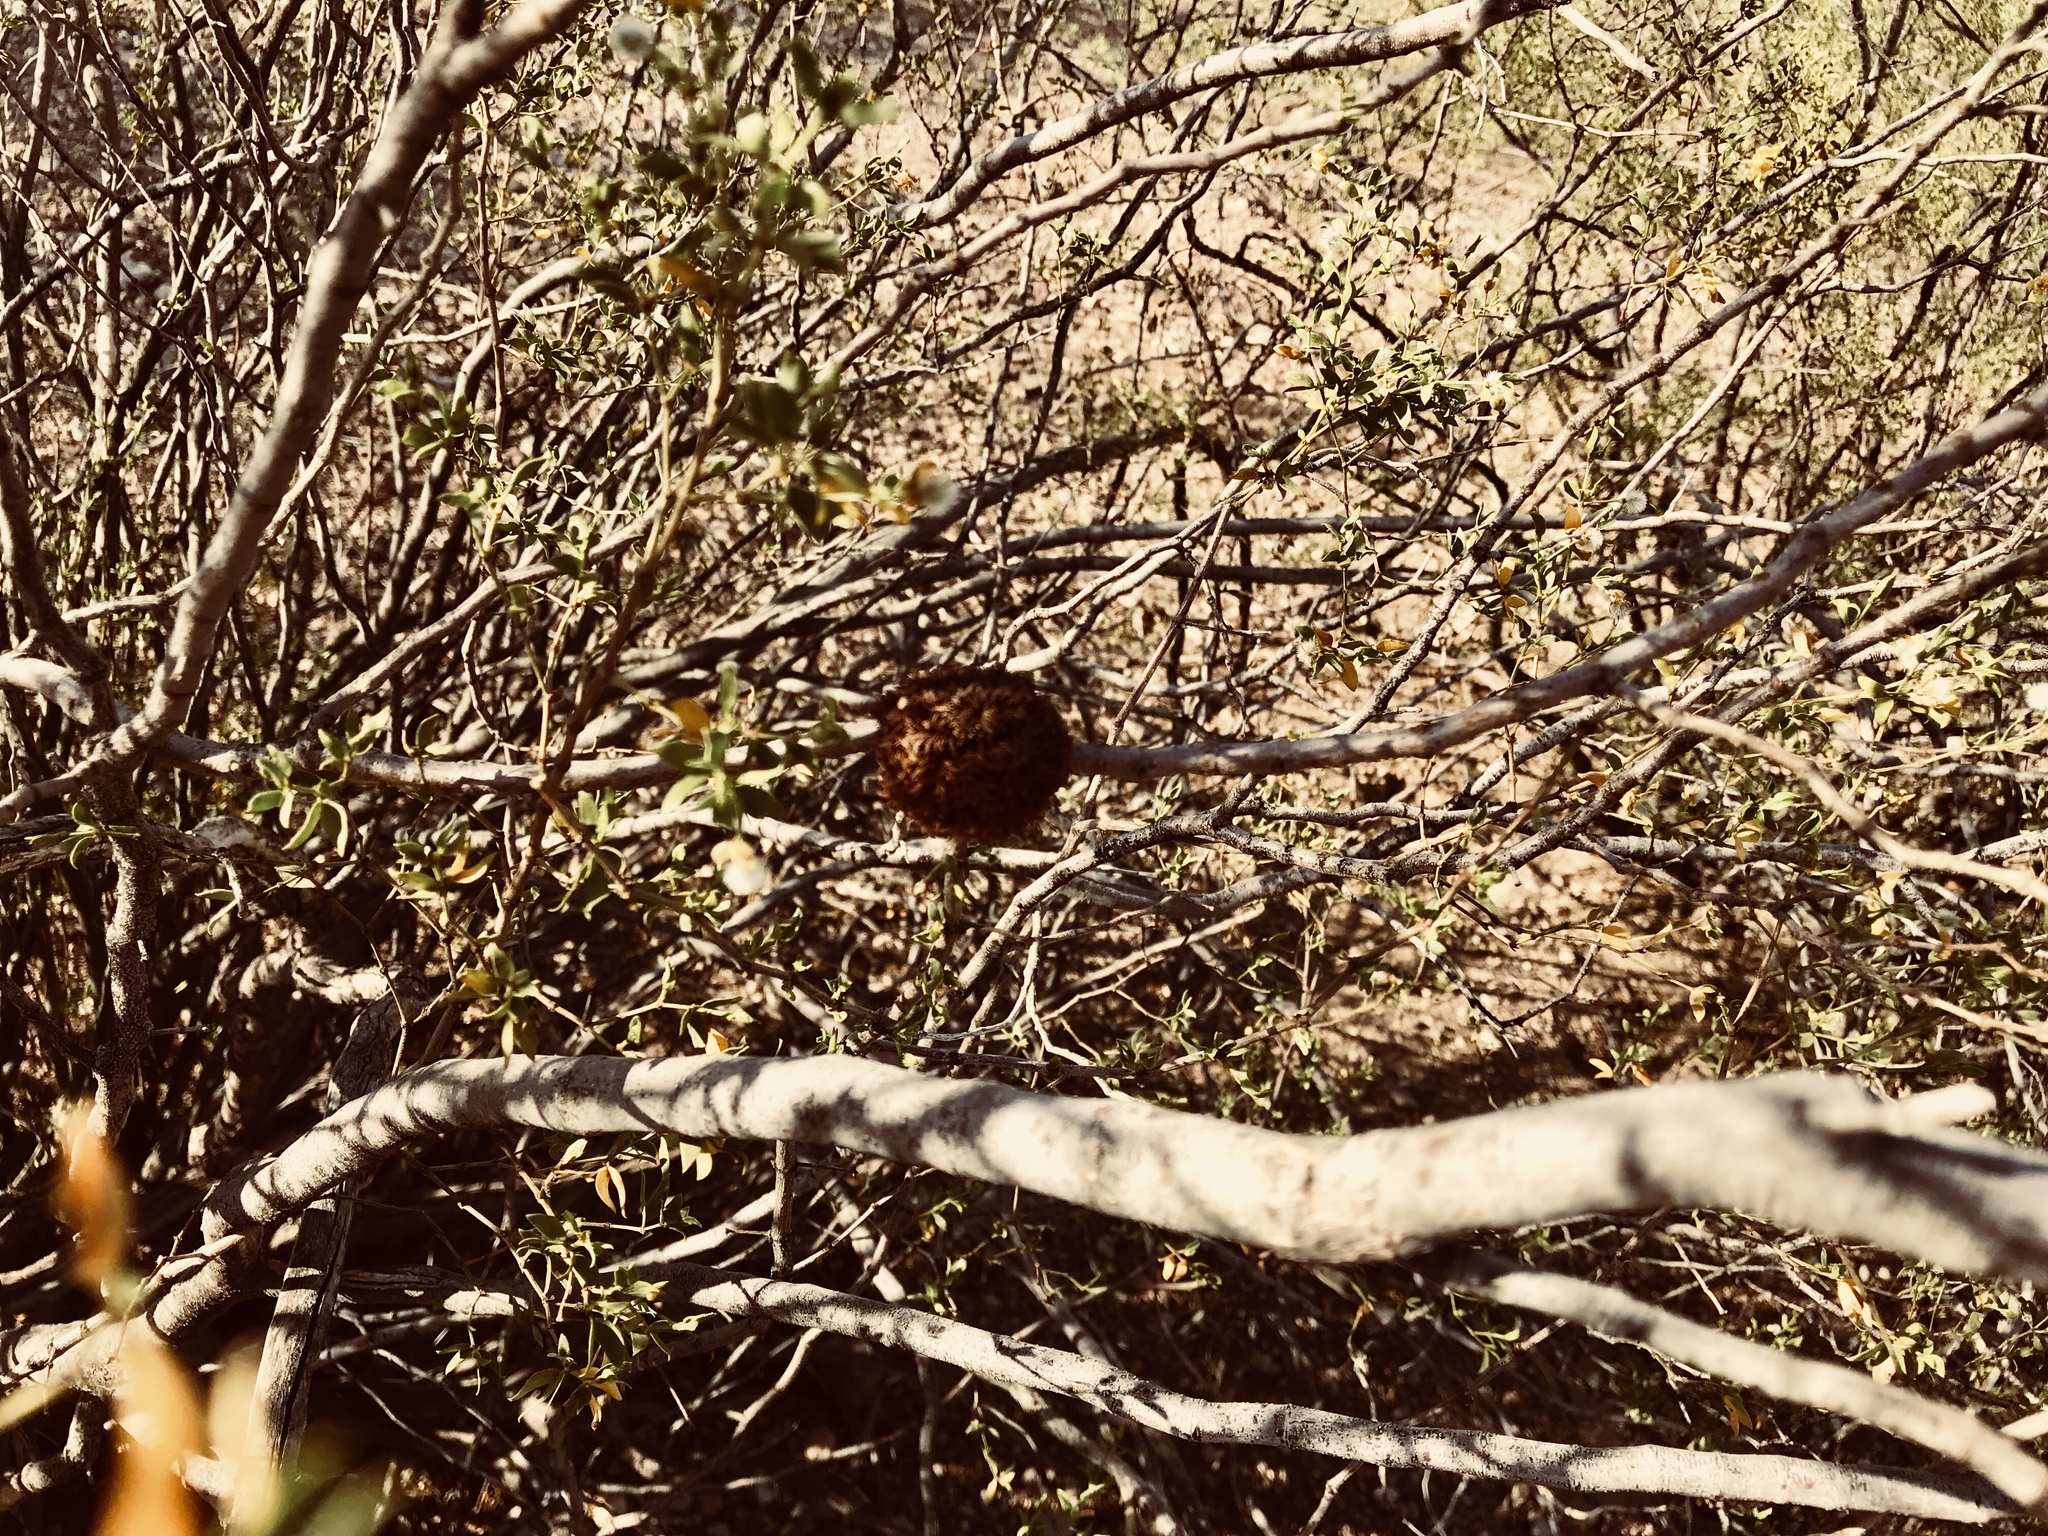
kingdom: Animalia
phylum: Arthropoda
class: Insecta
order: Diptera
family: Cecidomyiidae
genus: Asphondylia
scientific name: Asphondylia auripila
